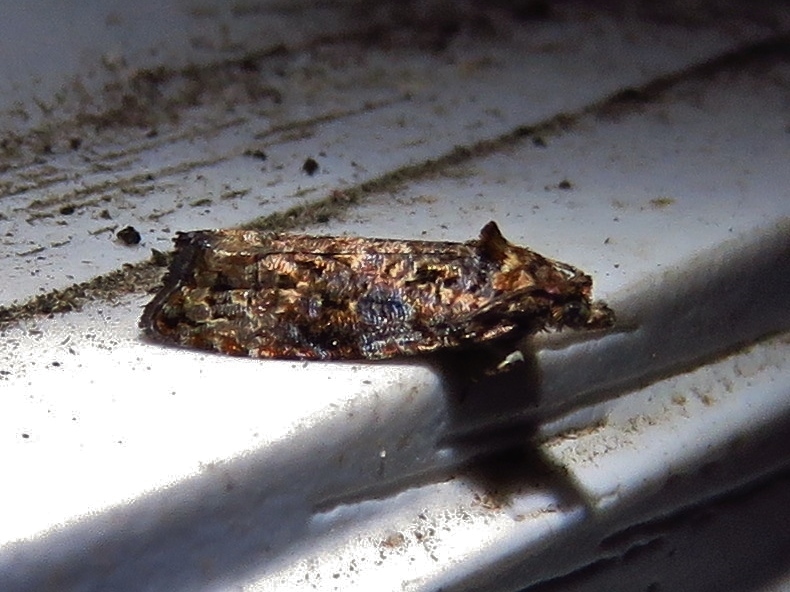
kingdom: Animalia
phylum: Arthropoda
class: Insecta
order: Lepidoptera
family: Tortricidae
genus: Endothenia
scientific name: Endothenia hebesana
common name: Verbena bud moth
